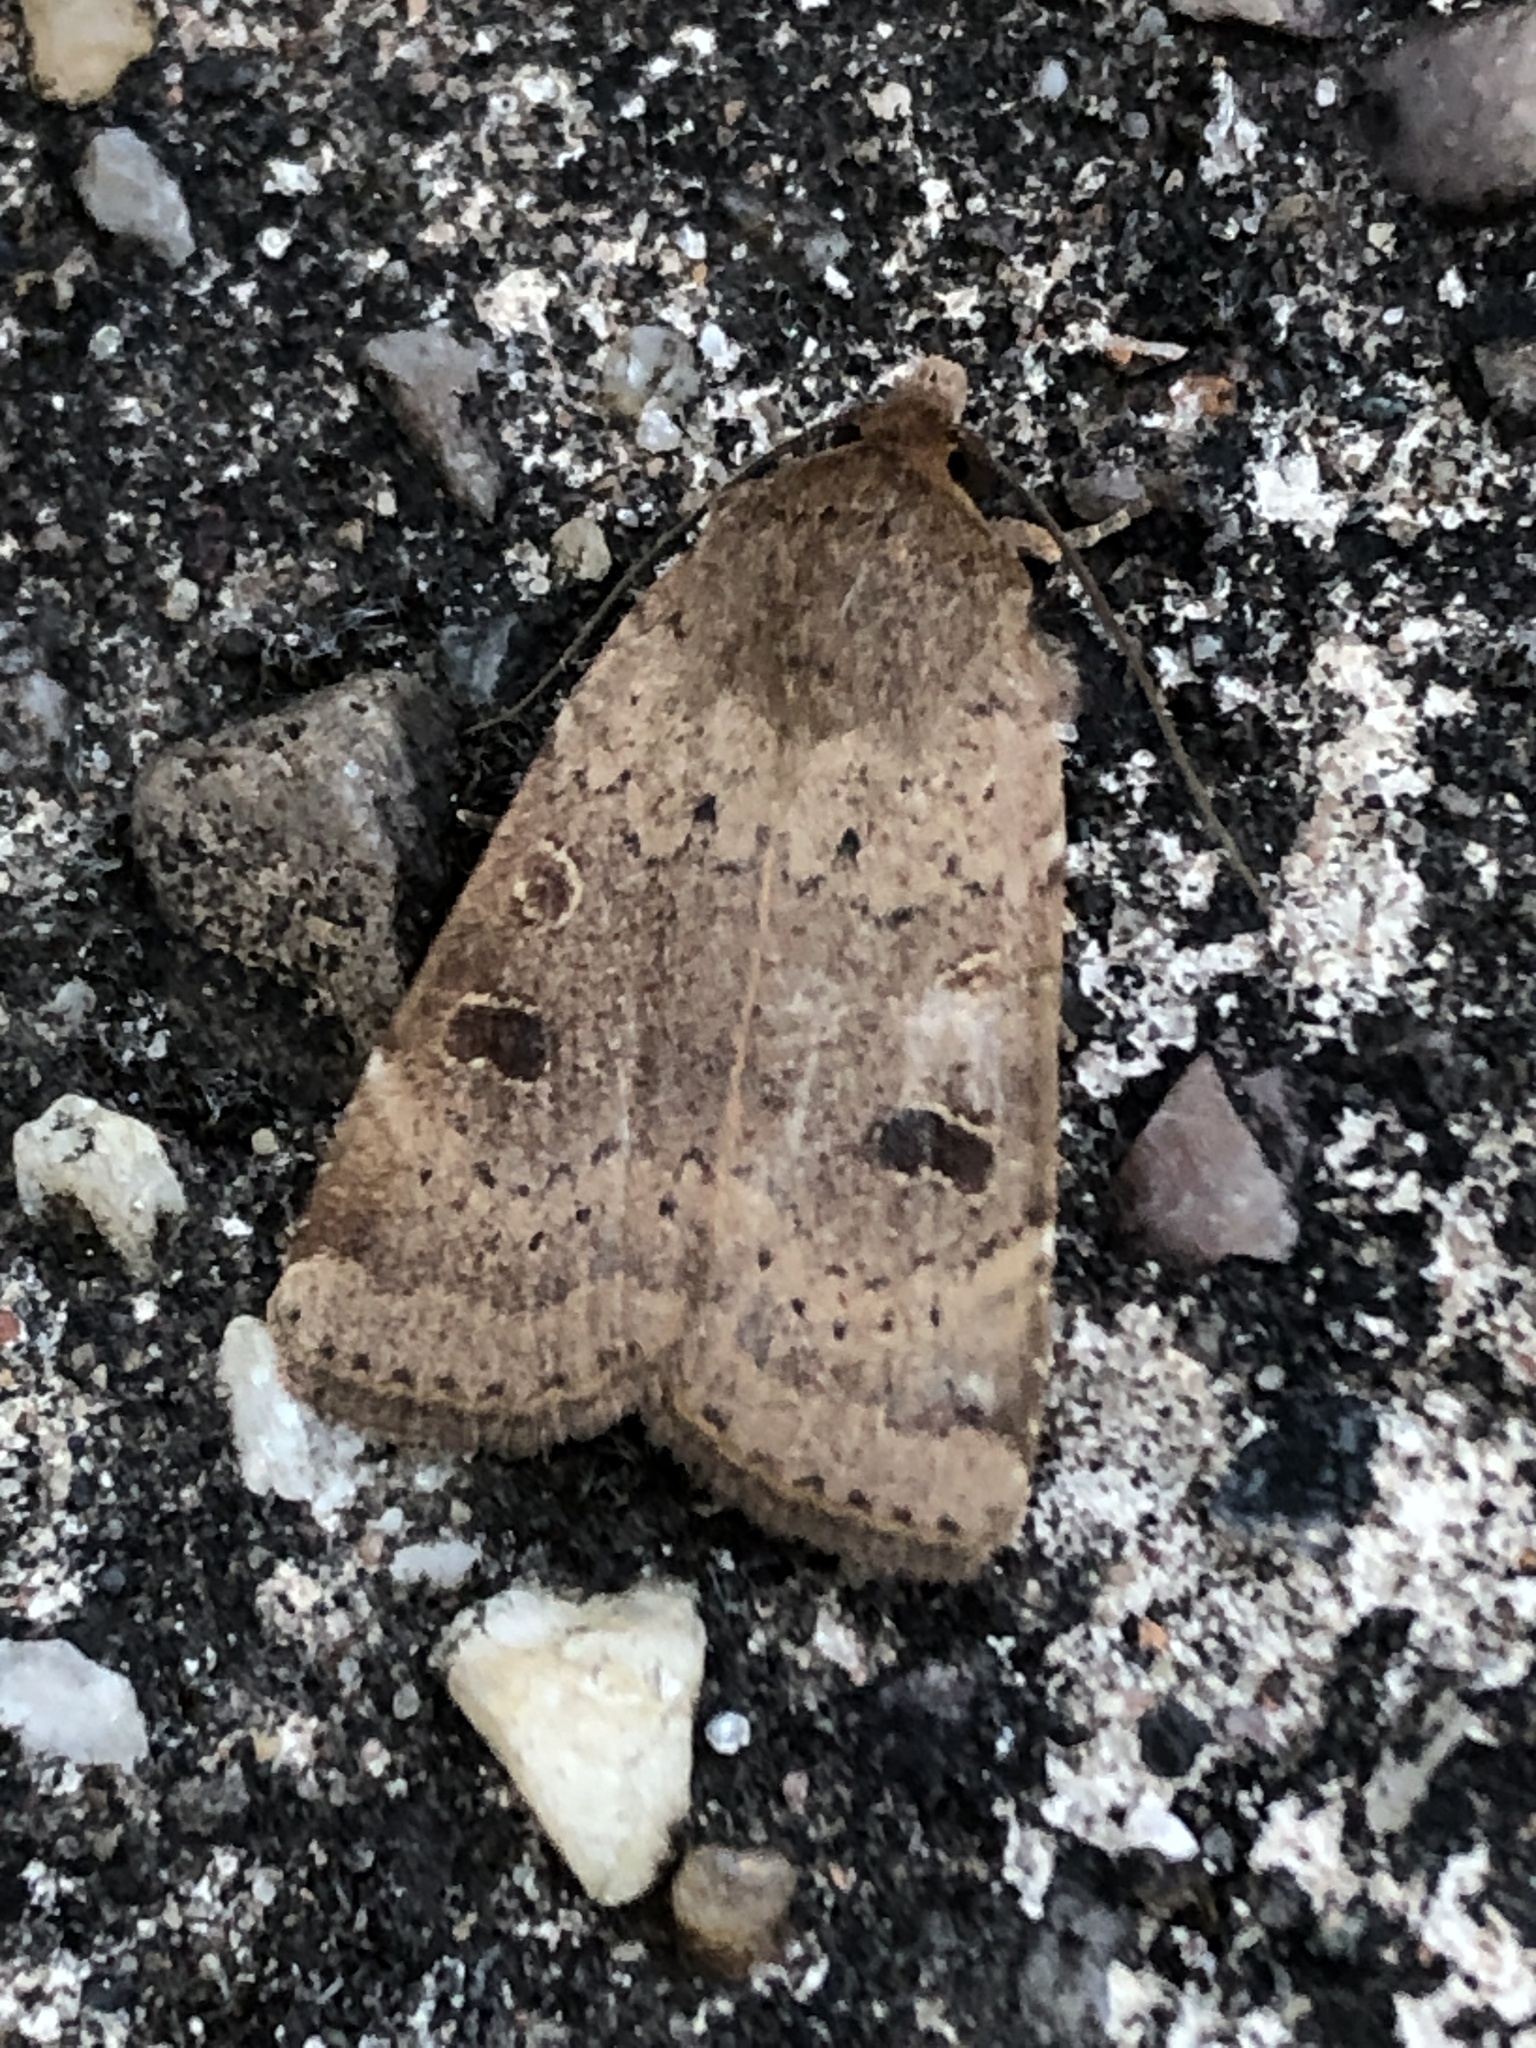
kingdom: Animalia
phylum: Arthropoda
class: Insecta
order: Lepidoptera
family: Noctuidae
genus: Noctua
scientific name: Noctua comes
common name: Lesser yellow underwing
